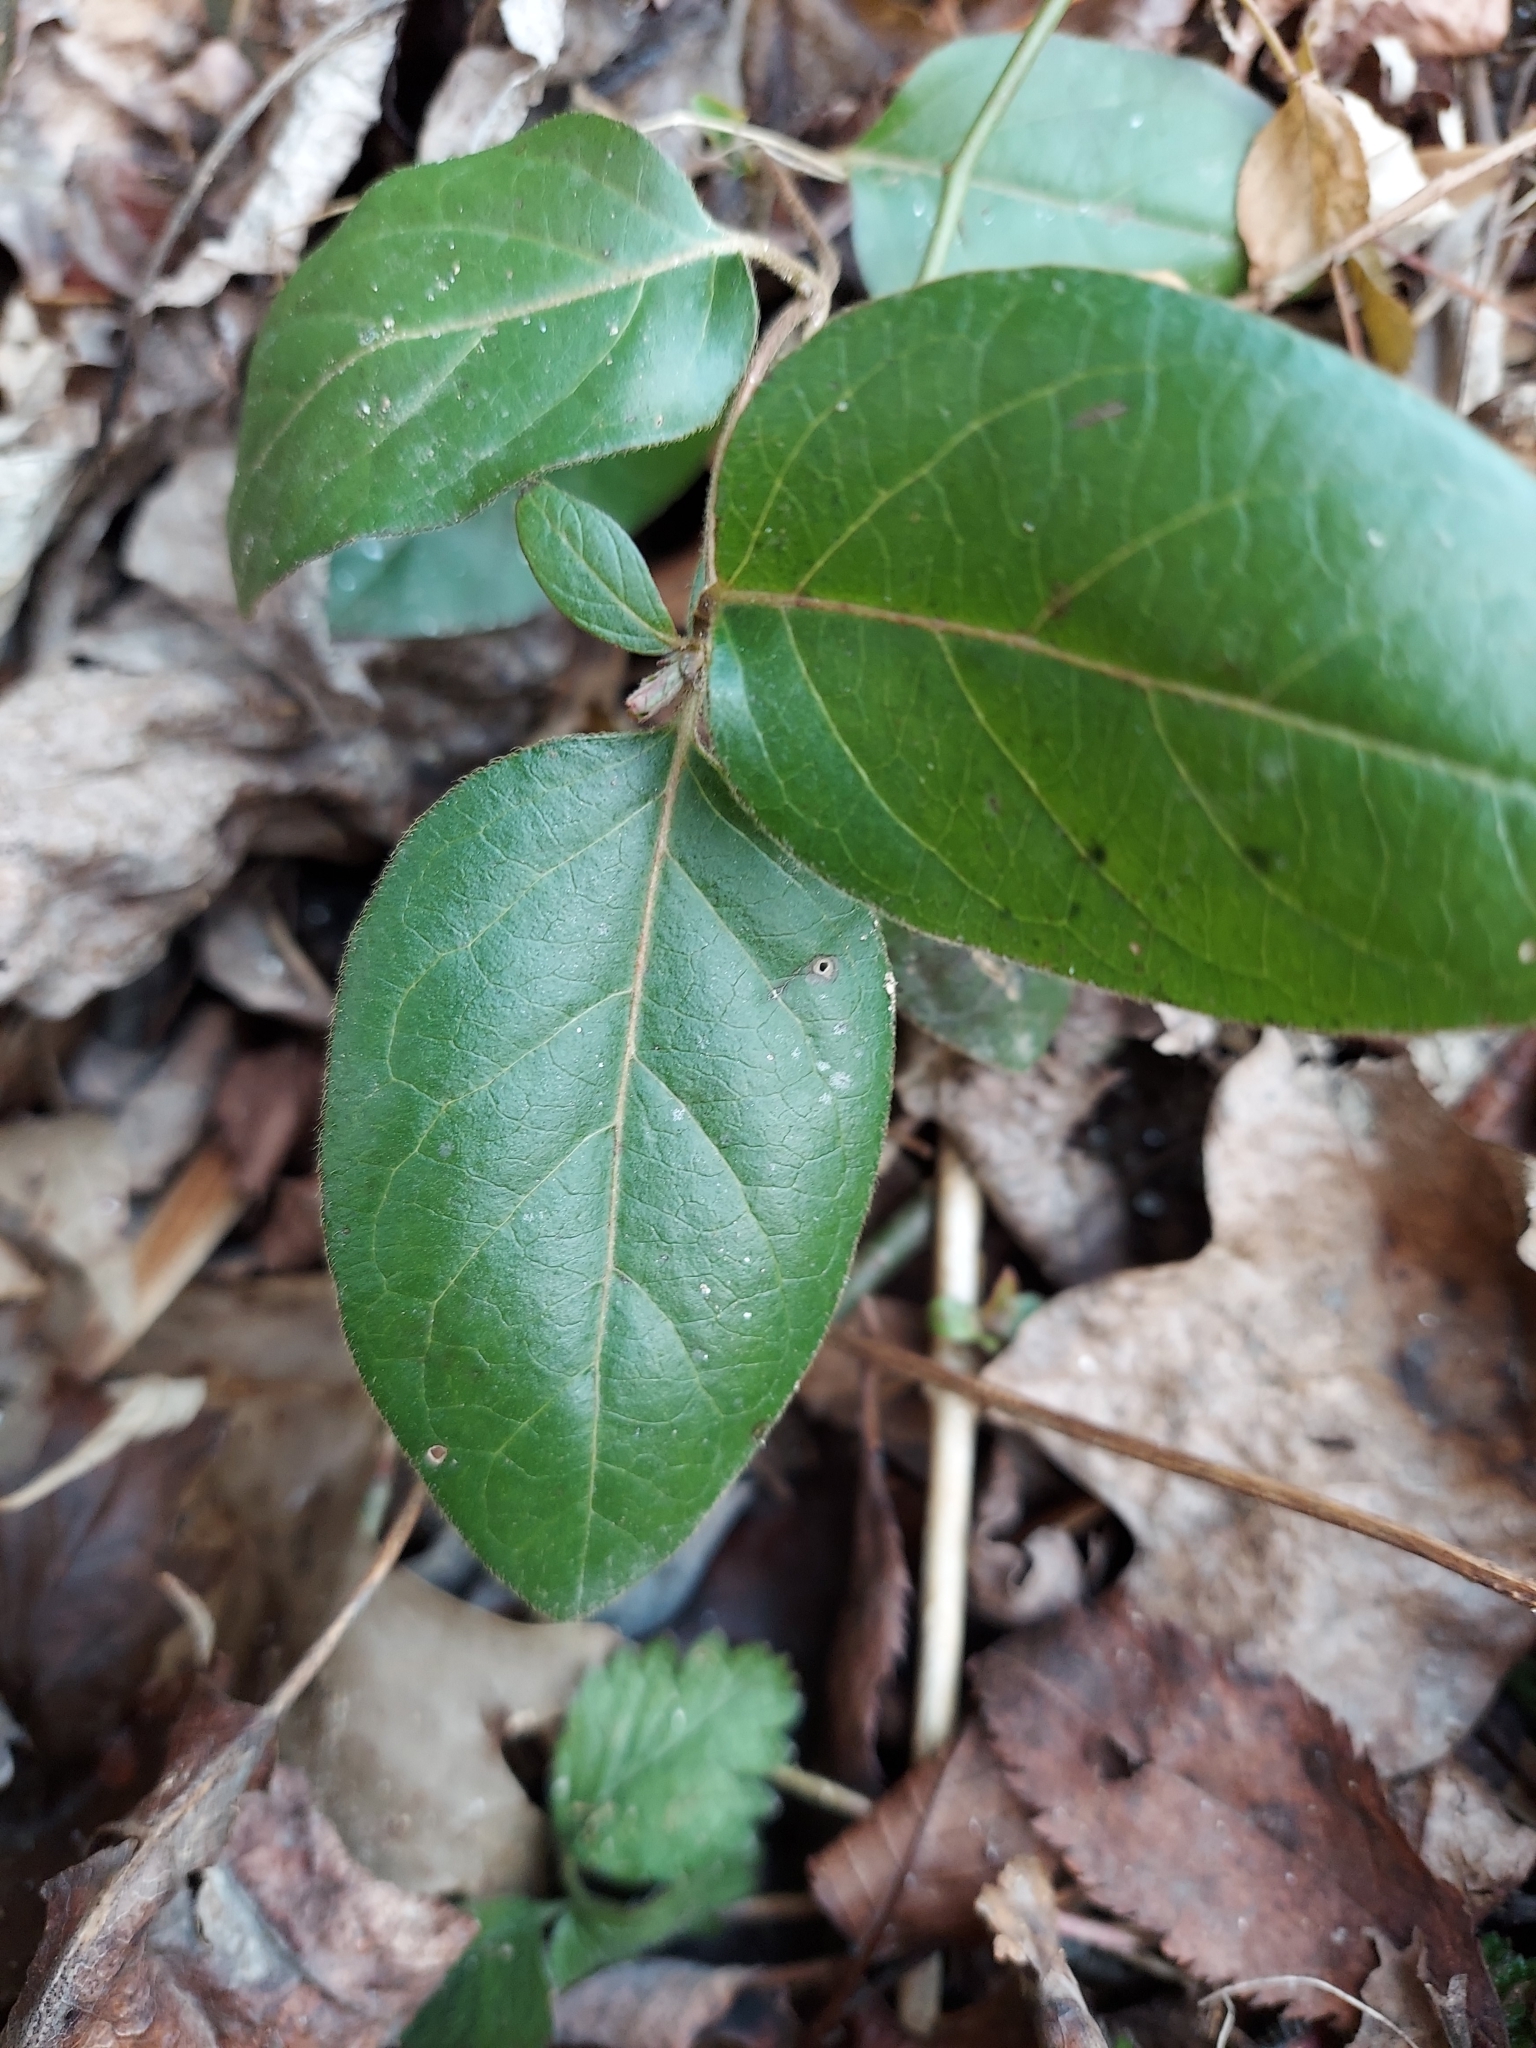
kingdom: Plantae
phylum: Tracheophyta
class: Magnoliopsida
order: Dipsacales
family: Caprifoliaceae
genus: Lonicera
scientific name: Lonicera japonica
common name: Japanese honeysuckle
